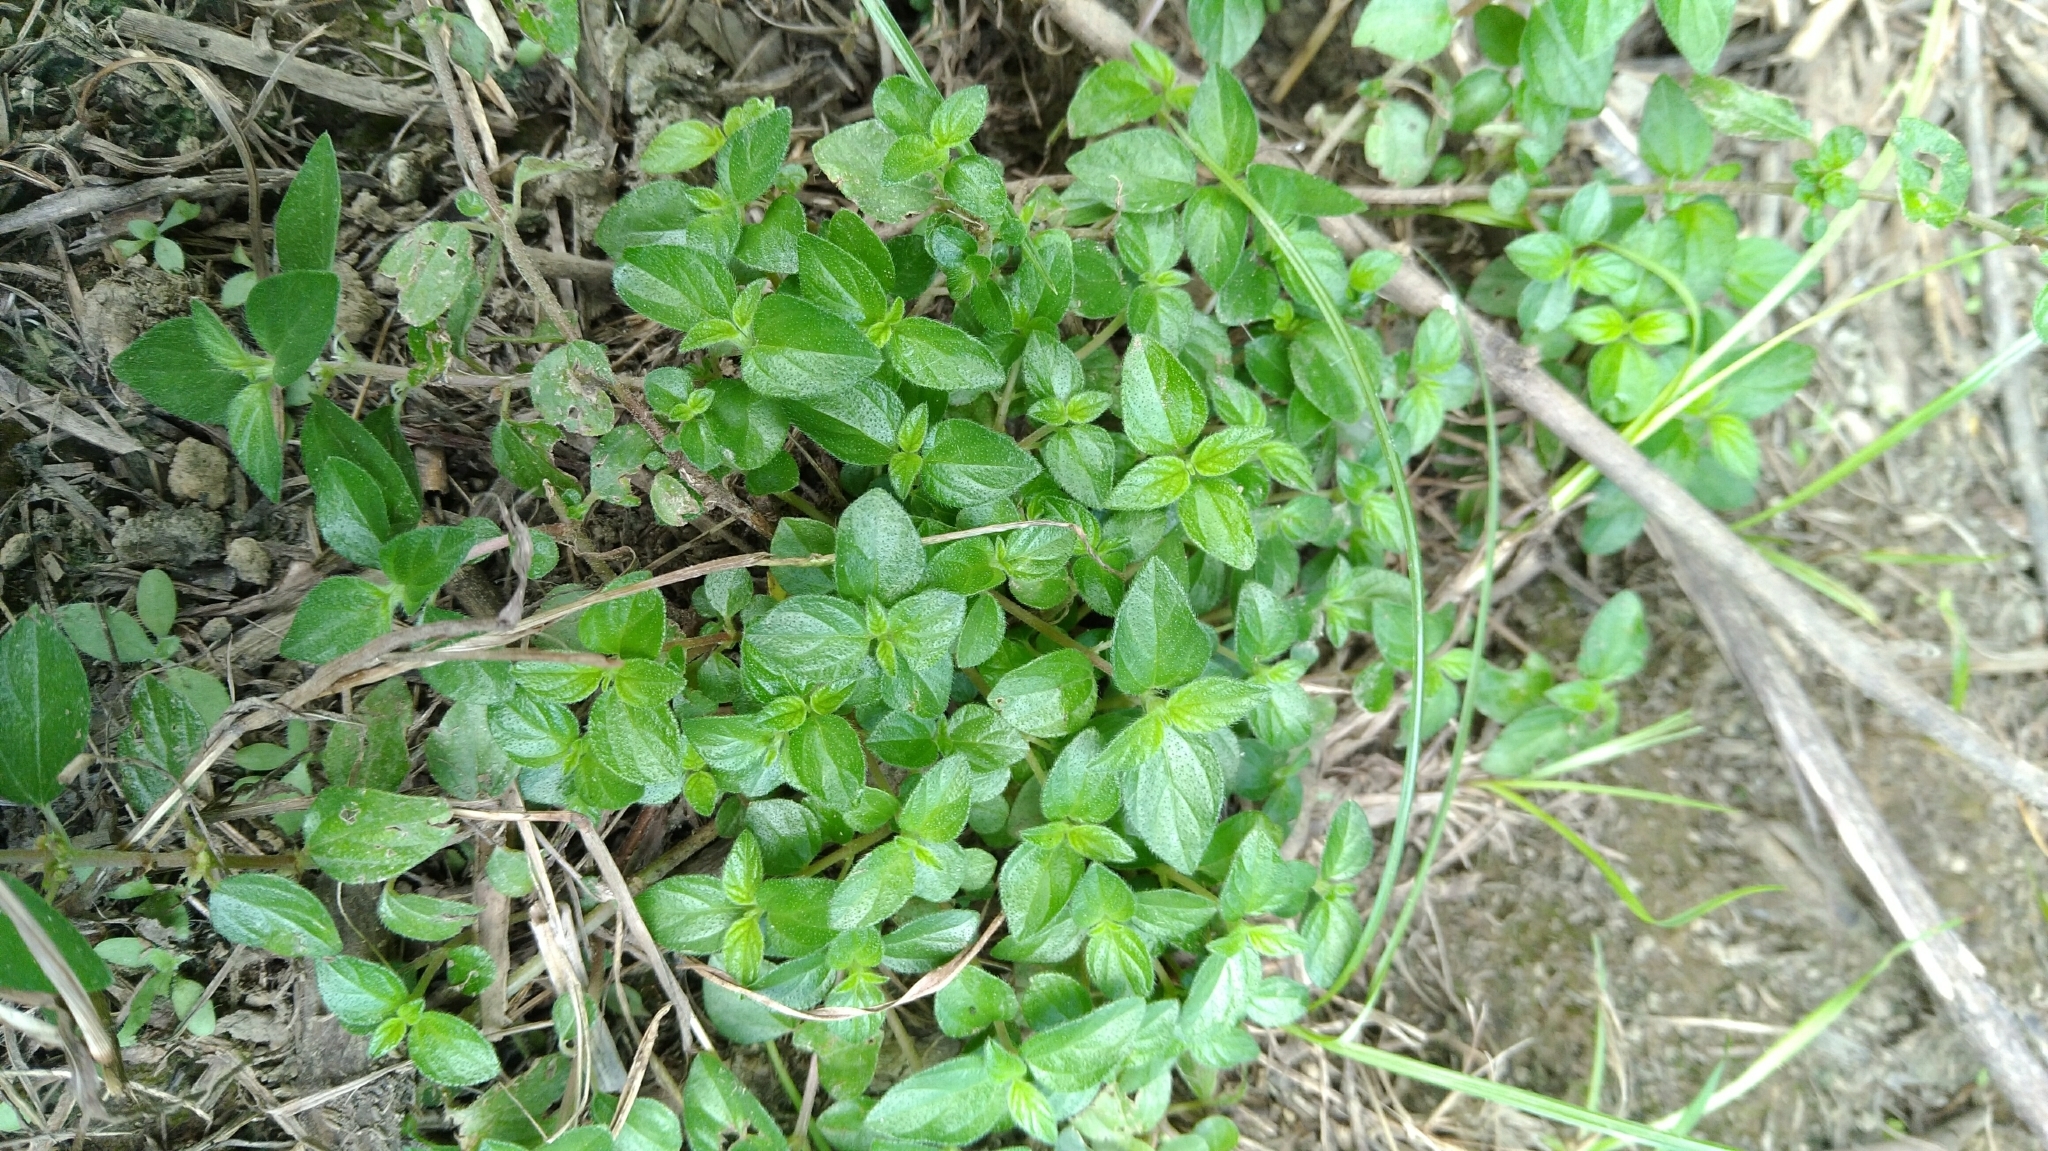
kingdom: Plantae
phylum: Tracheophyta
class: Magnoliopsida
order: Rosales
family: Urticaceae
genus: Pouzolzia
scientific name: Pouzolzia zeylanica
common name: Graceful pouzolzsbush
